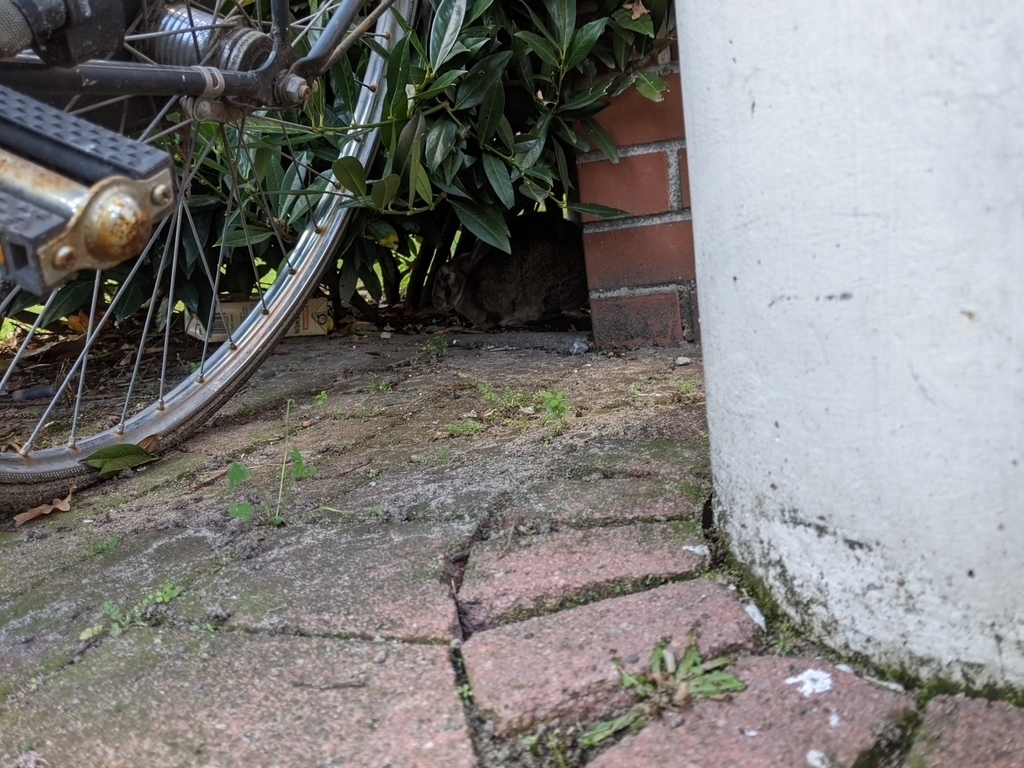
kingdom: Viruses
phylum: Nucleocytoviricota
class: Pokkesviricetes
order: Chitovirales
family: Poxviridae
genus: Leporipoxvirus
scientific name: Leporipoxvirus Myxoma virus
